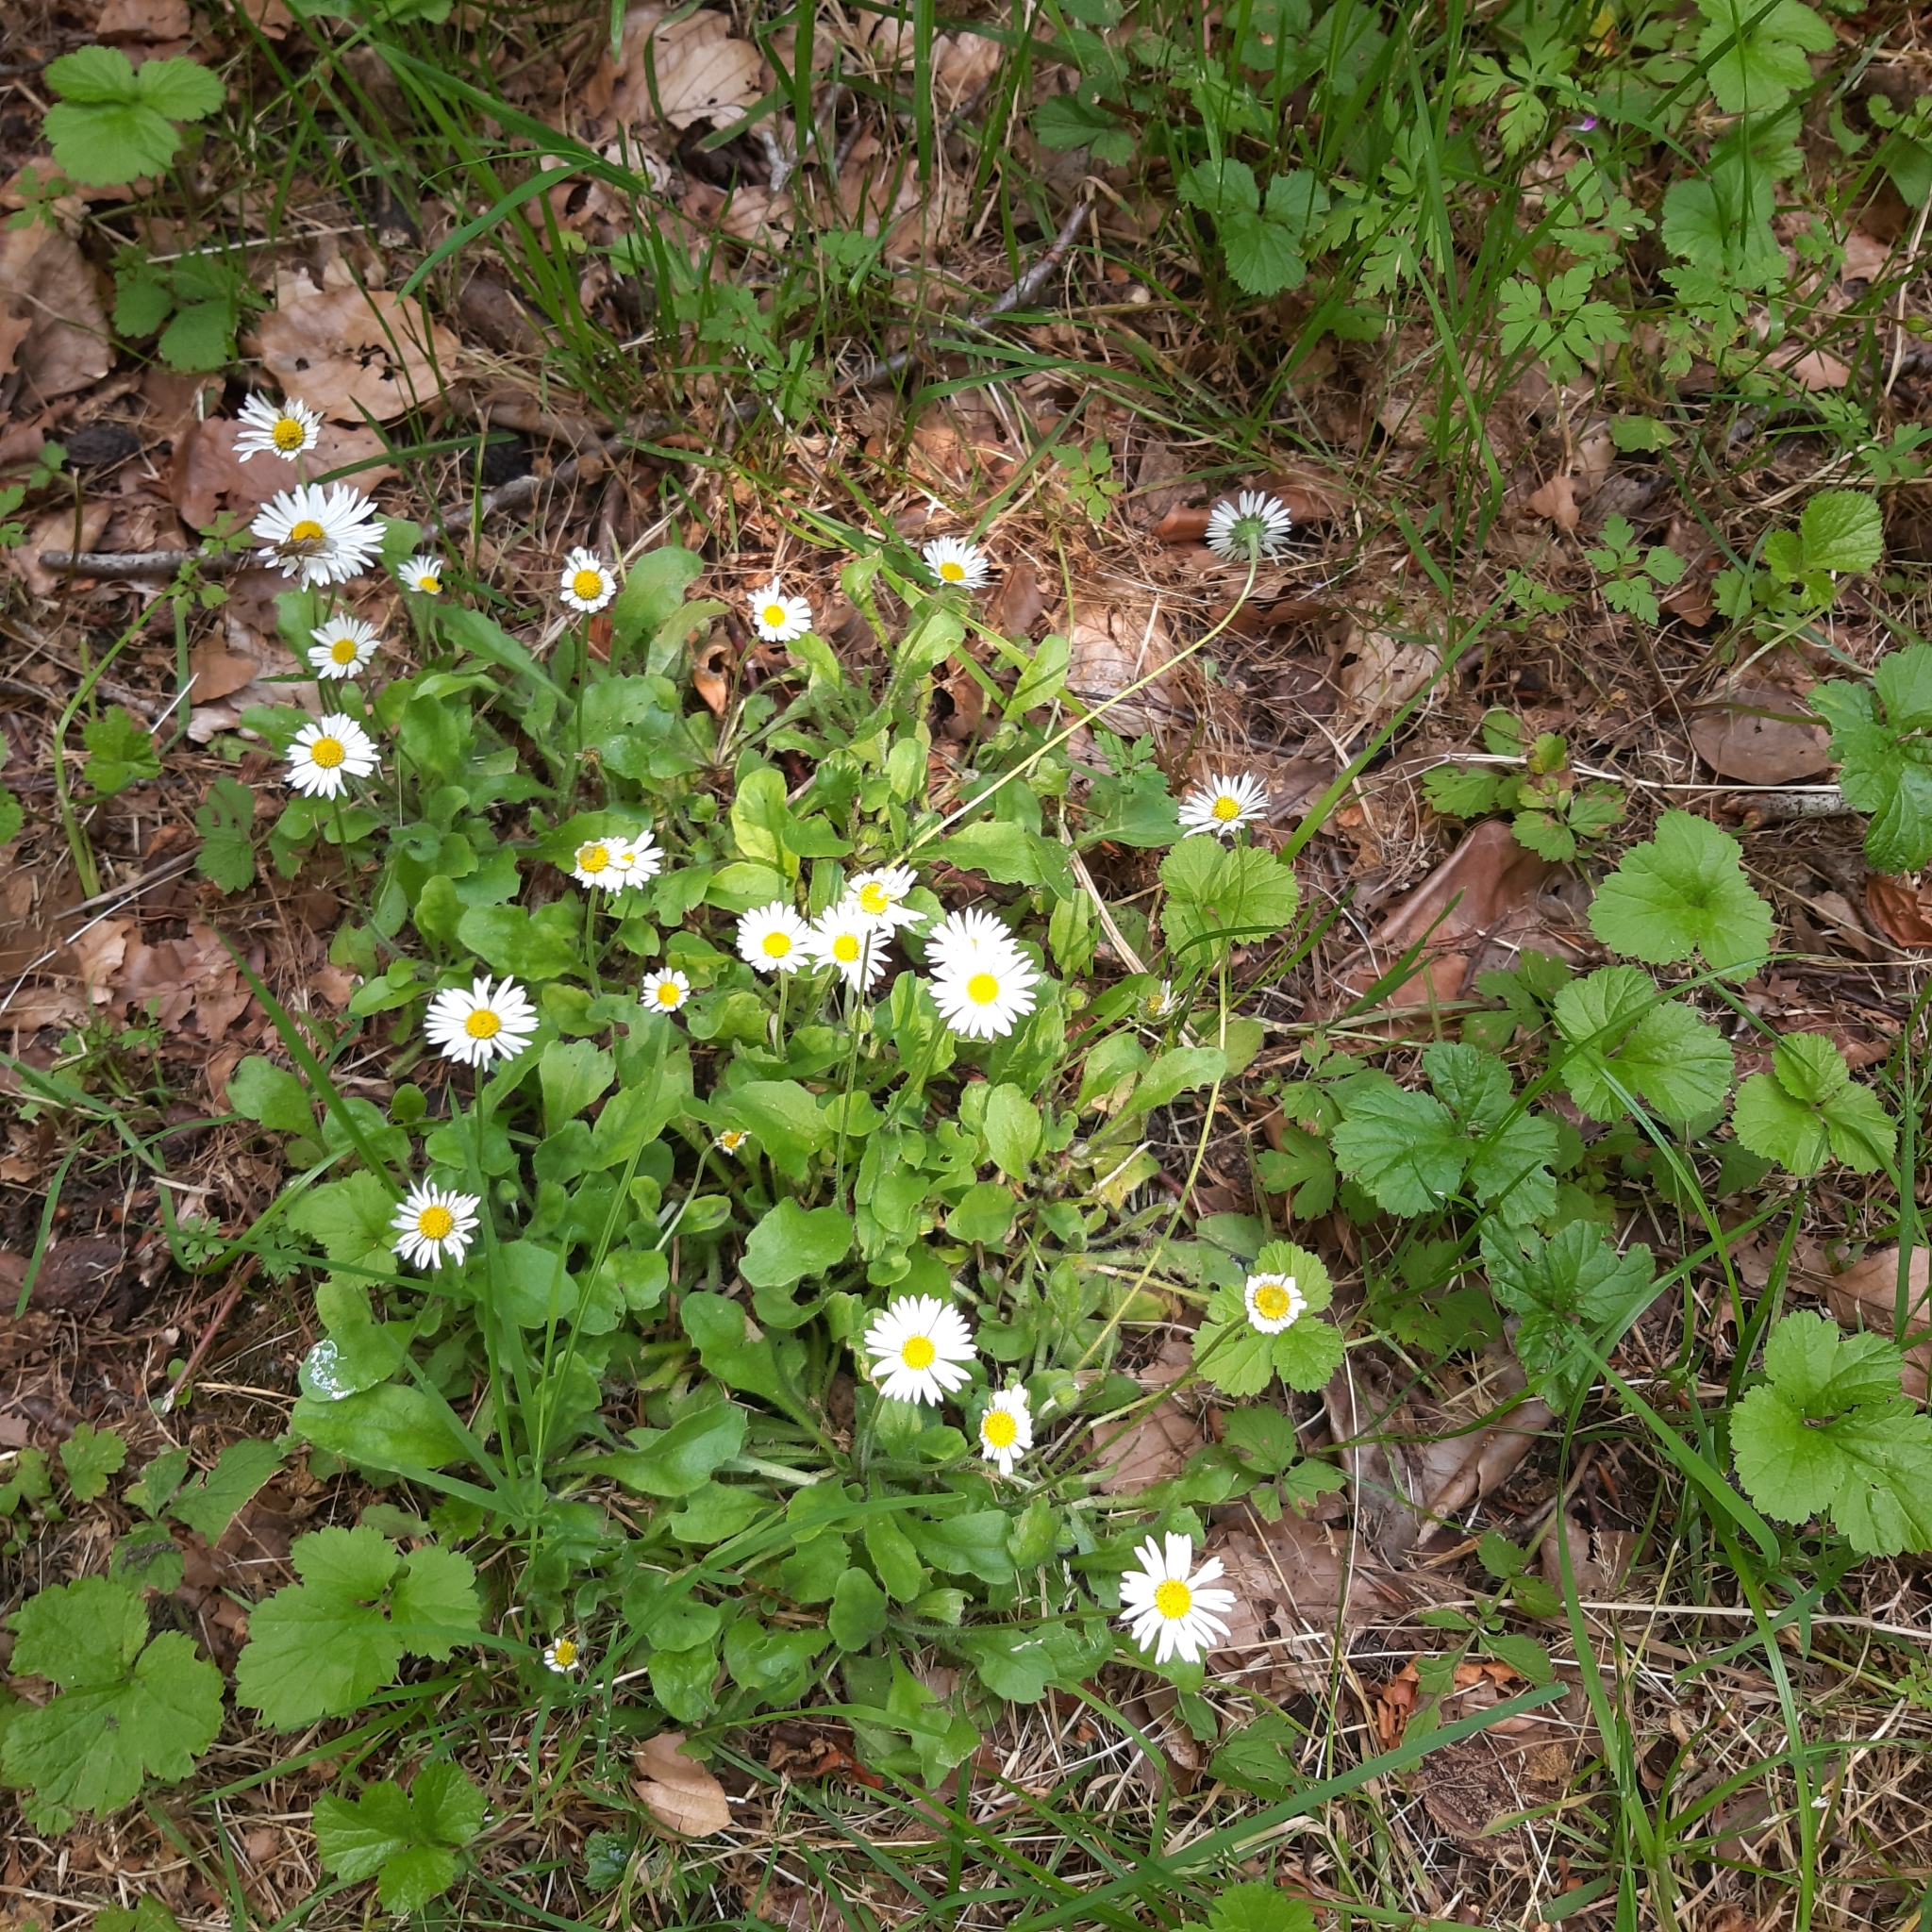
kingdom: Plantae
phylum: Tracheophyta
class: Magnoliopsida
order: Asterales
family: Asteraceae
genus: Bellis
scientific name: Bellis perennis
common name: Lawndaisy
